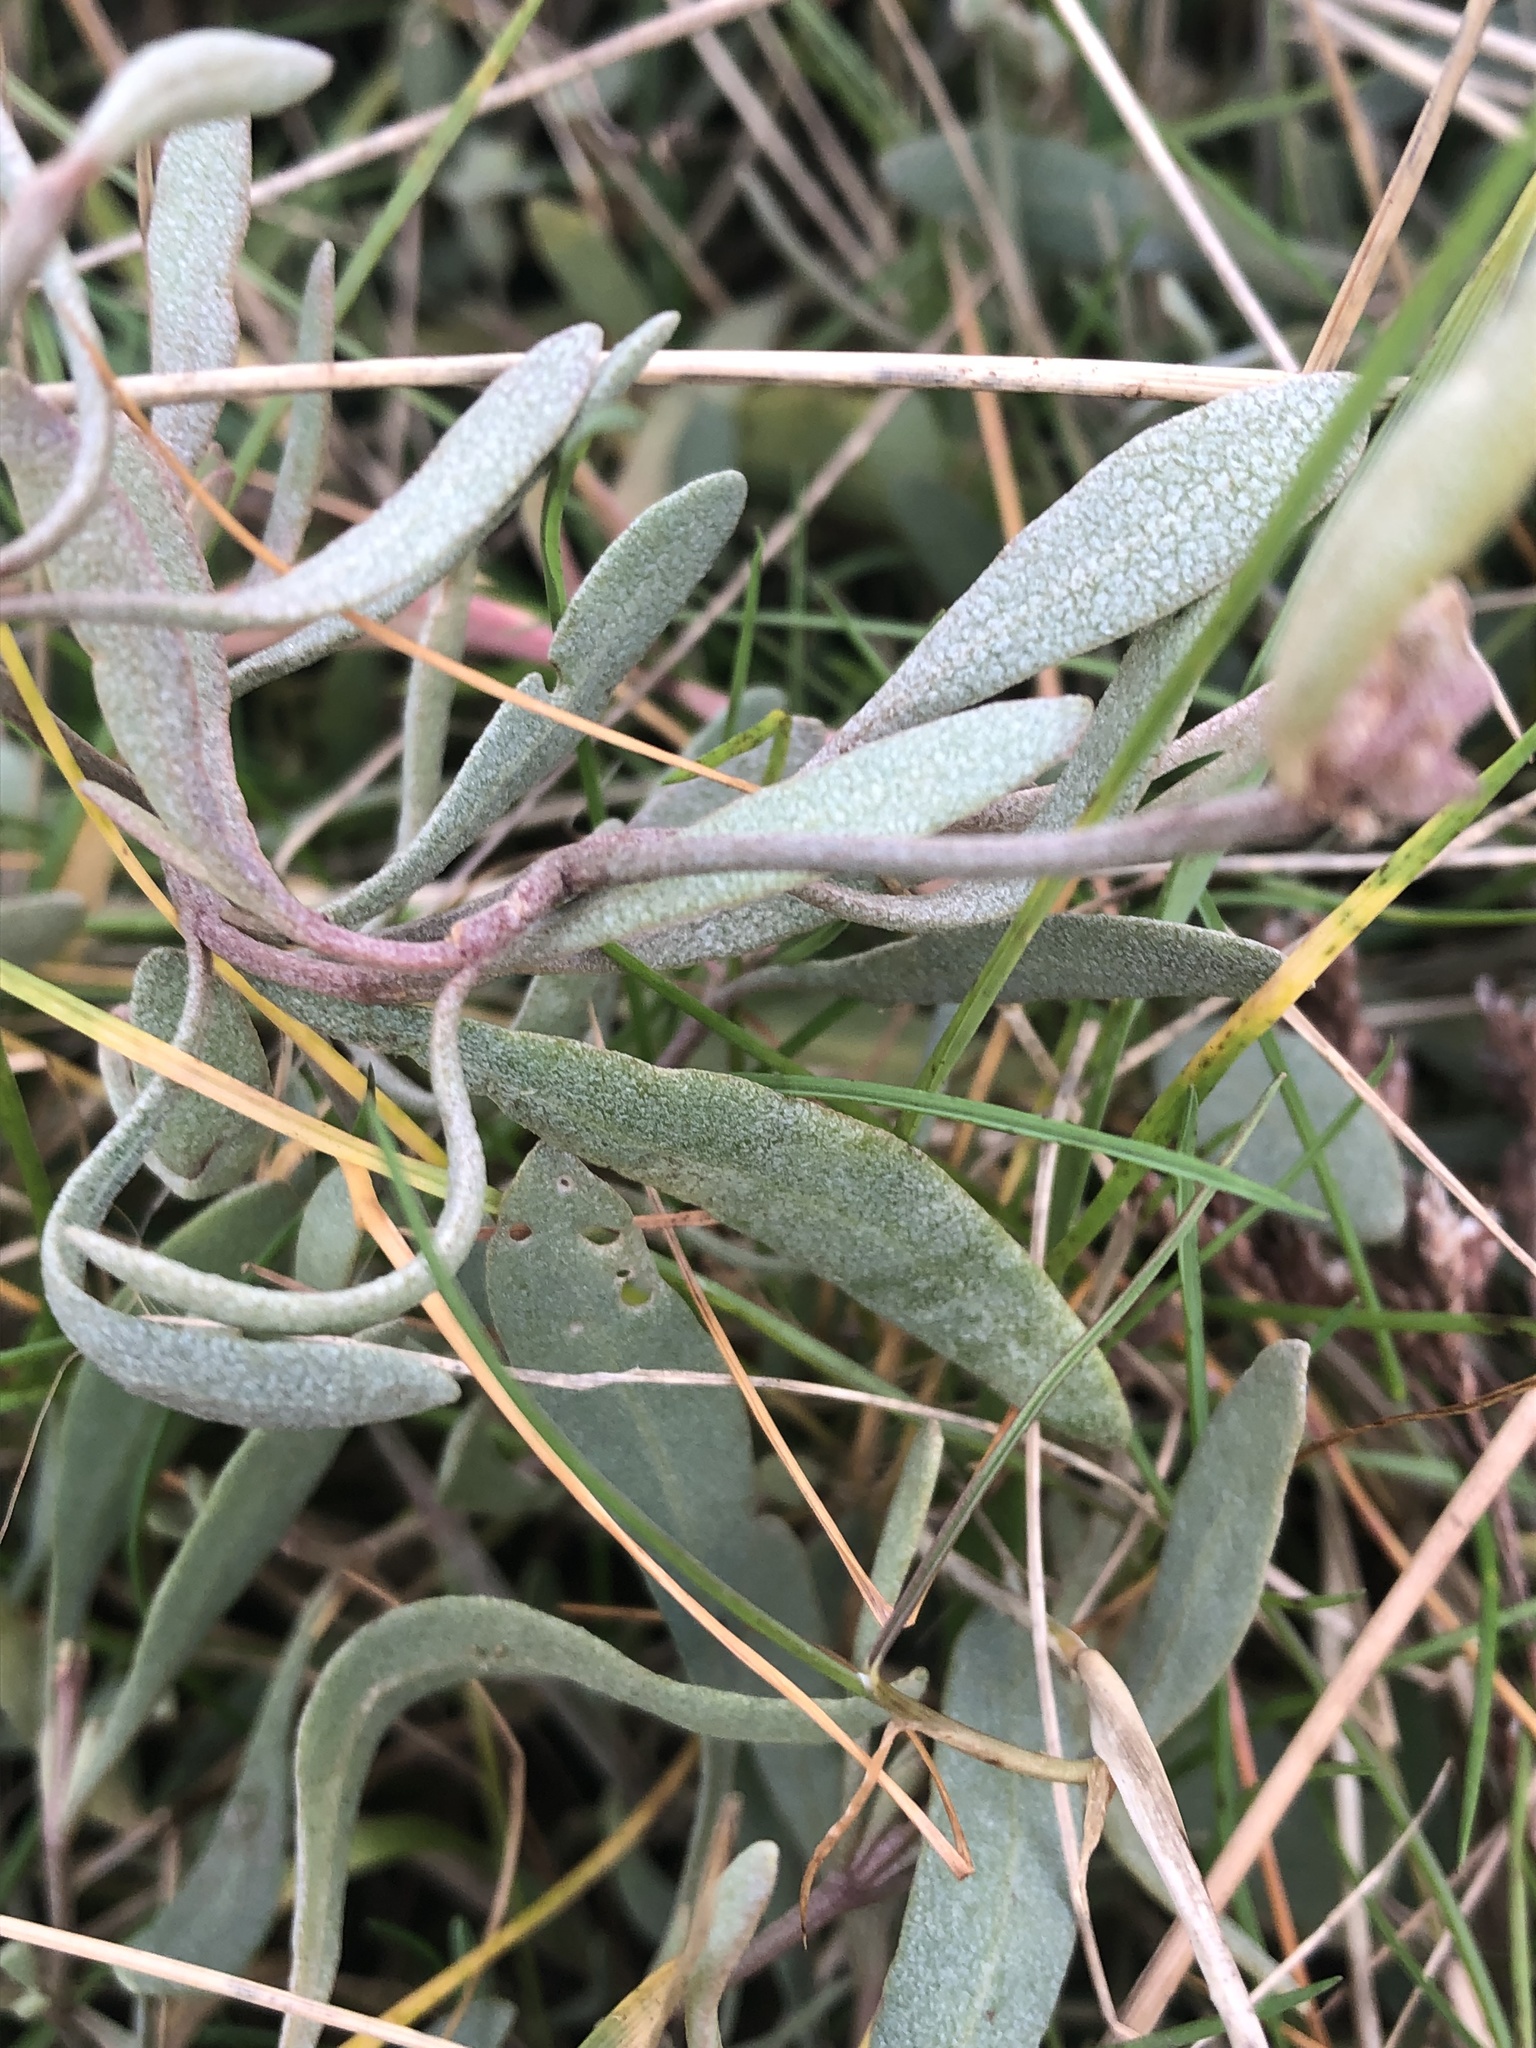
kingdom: Plantae
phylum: Tracheophyta
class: Magnoliopsida
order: Caryophyllales
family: Amaranthaceae
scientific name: Amaranthaceae
